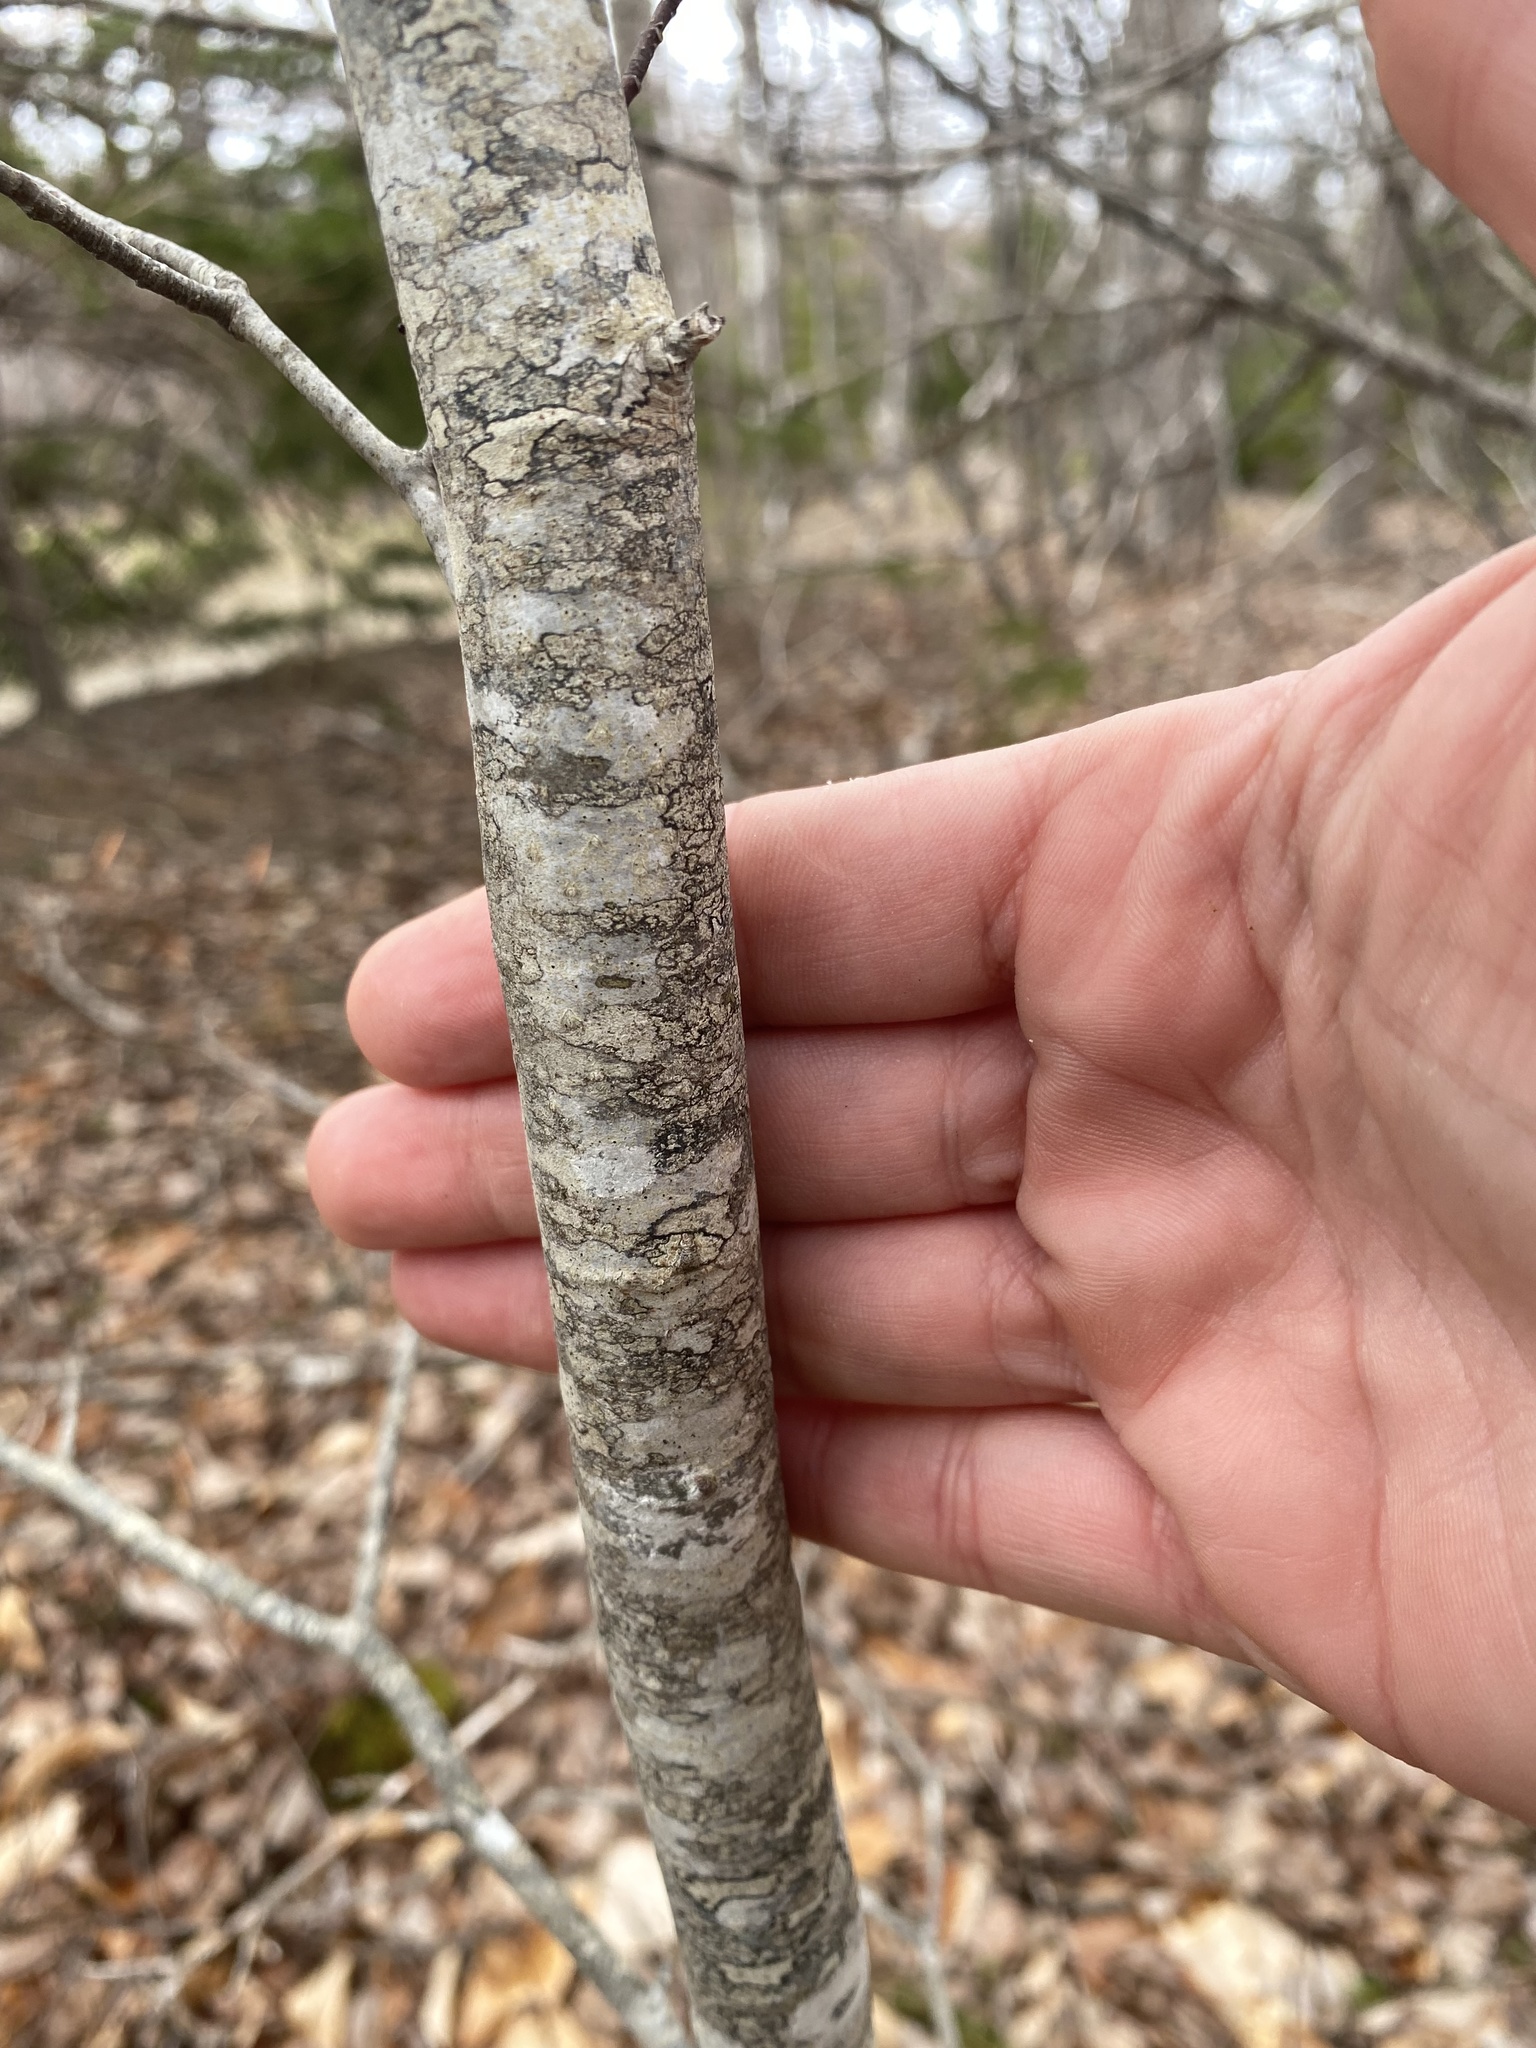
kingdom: Plantae
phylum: Tracheophyta
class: Magnoliopsida
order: Fagales
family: Fagaceae
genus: Fagus
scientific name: Fagus grandifolia
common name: American beech
